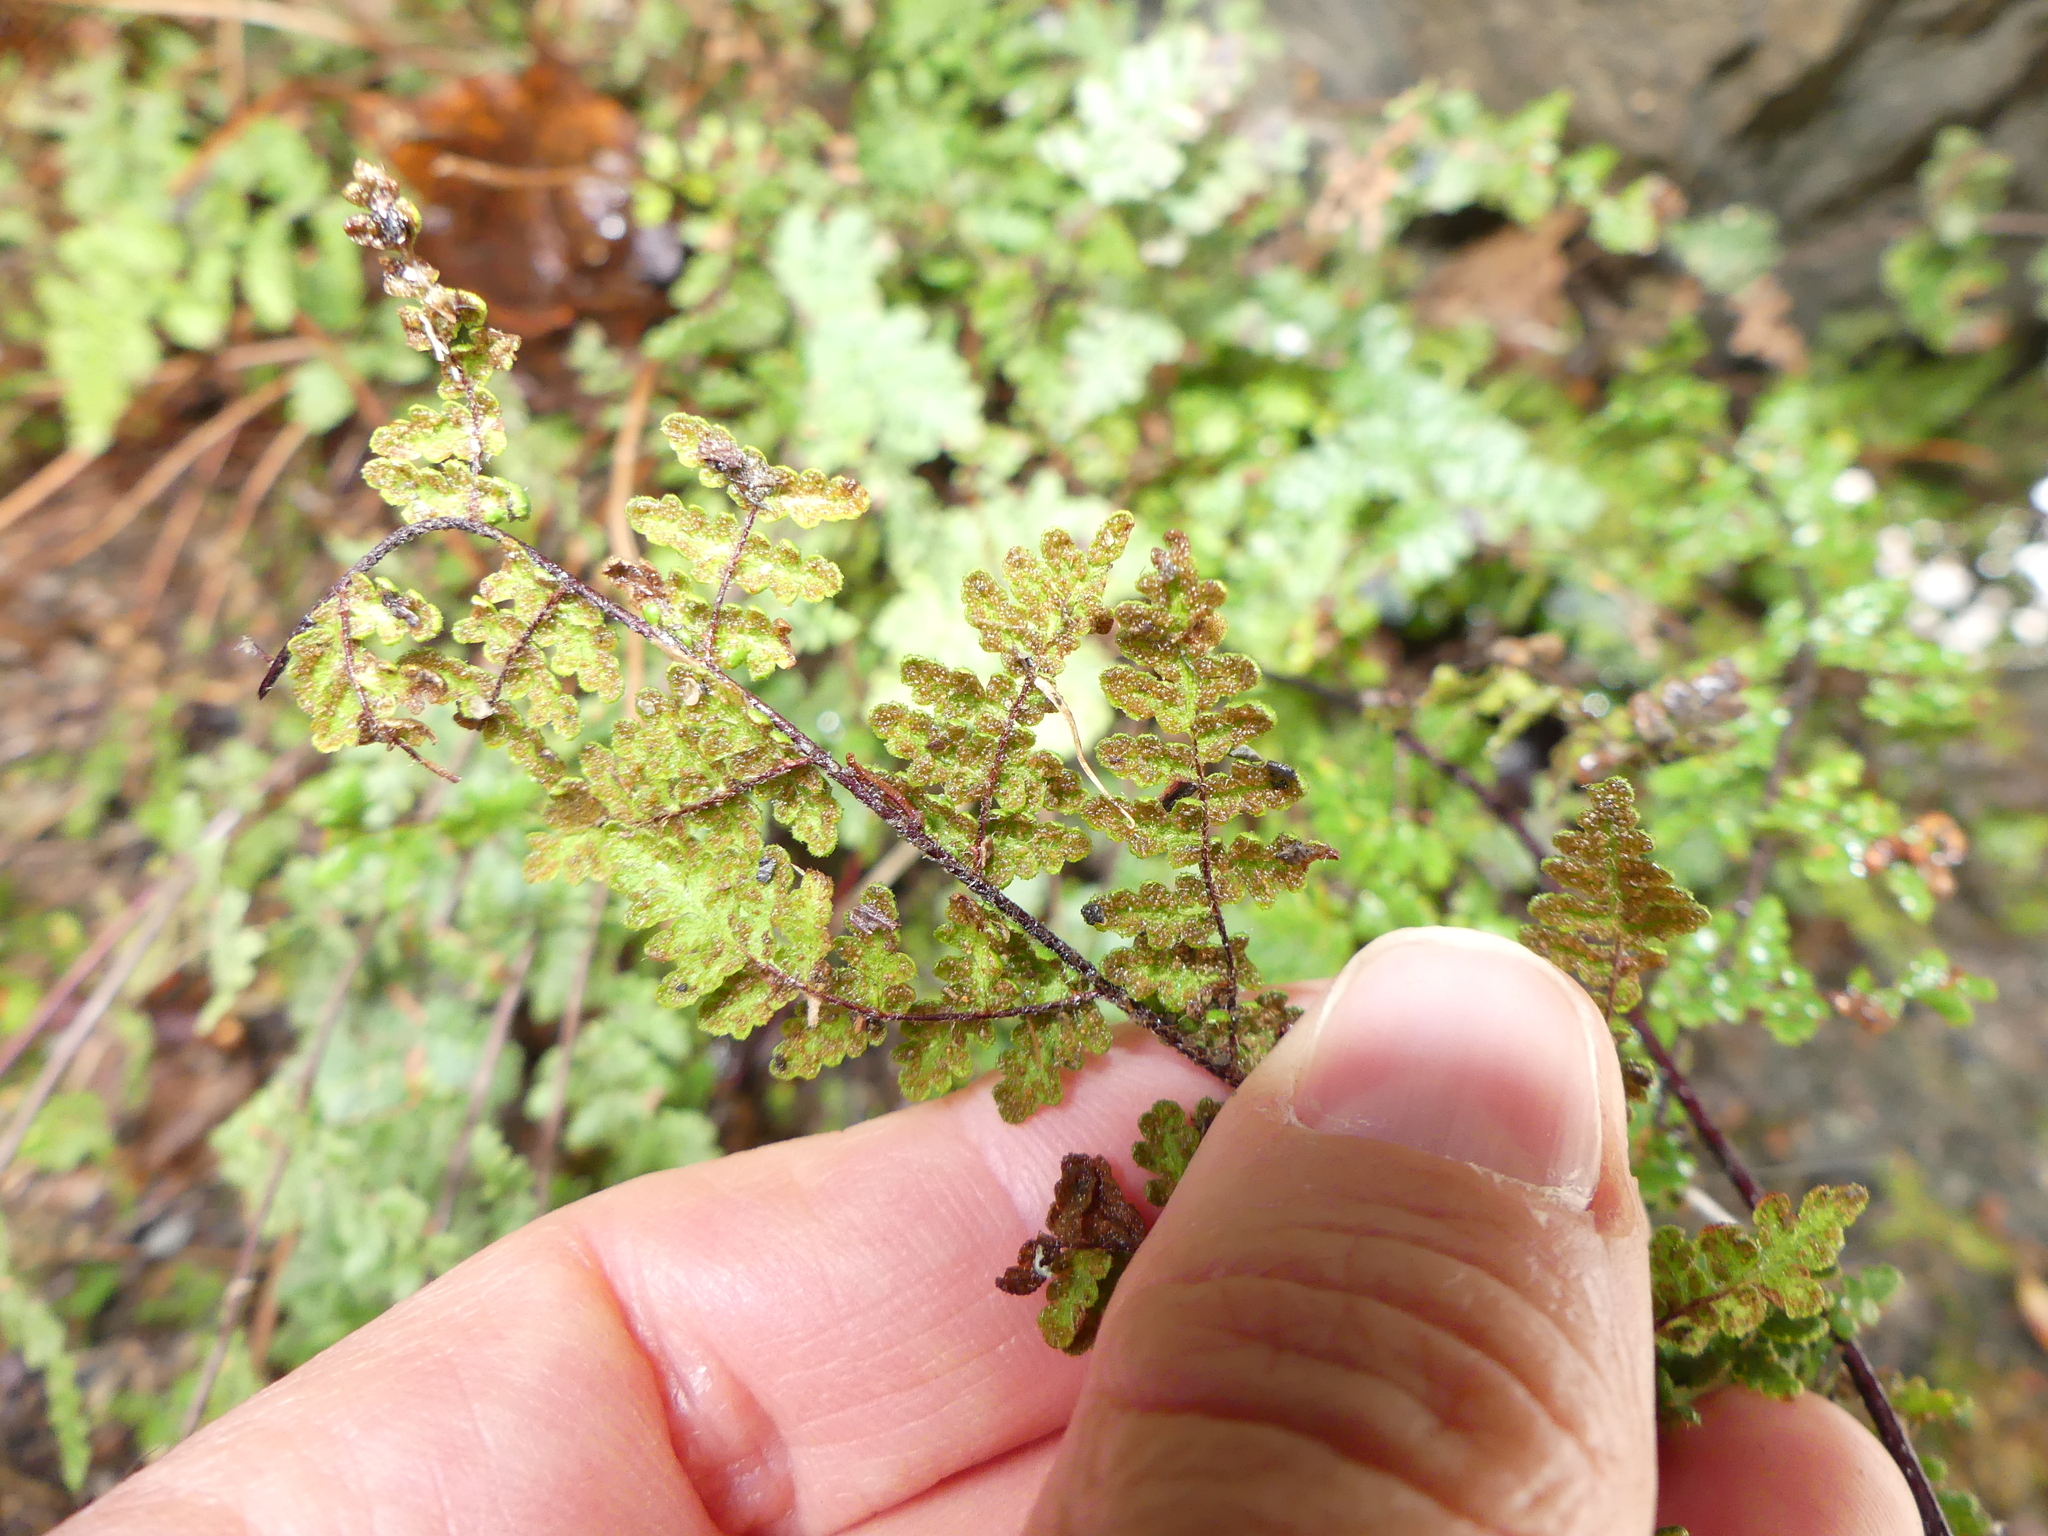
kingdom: Plantae
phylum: Tracheophyta
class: Polypodiopsida
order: Polypodiales
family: Pteridaceae
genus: Myriopteris
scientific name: Myriopteris lanosa
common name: Hairy lip fern
